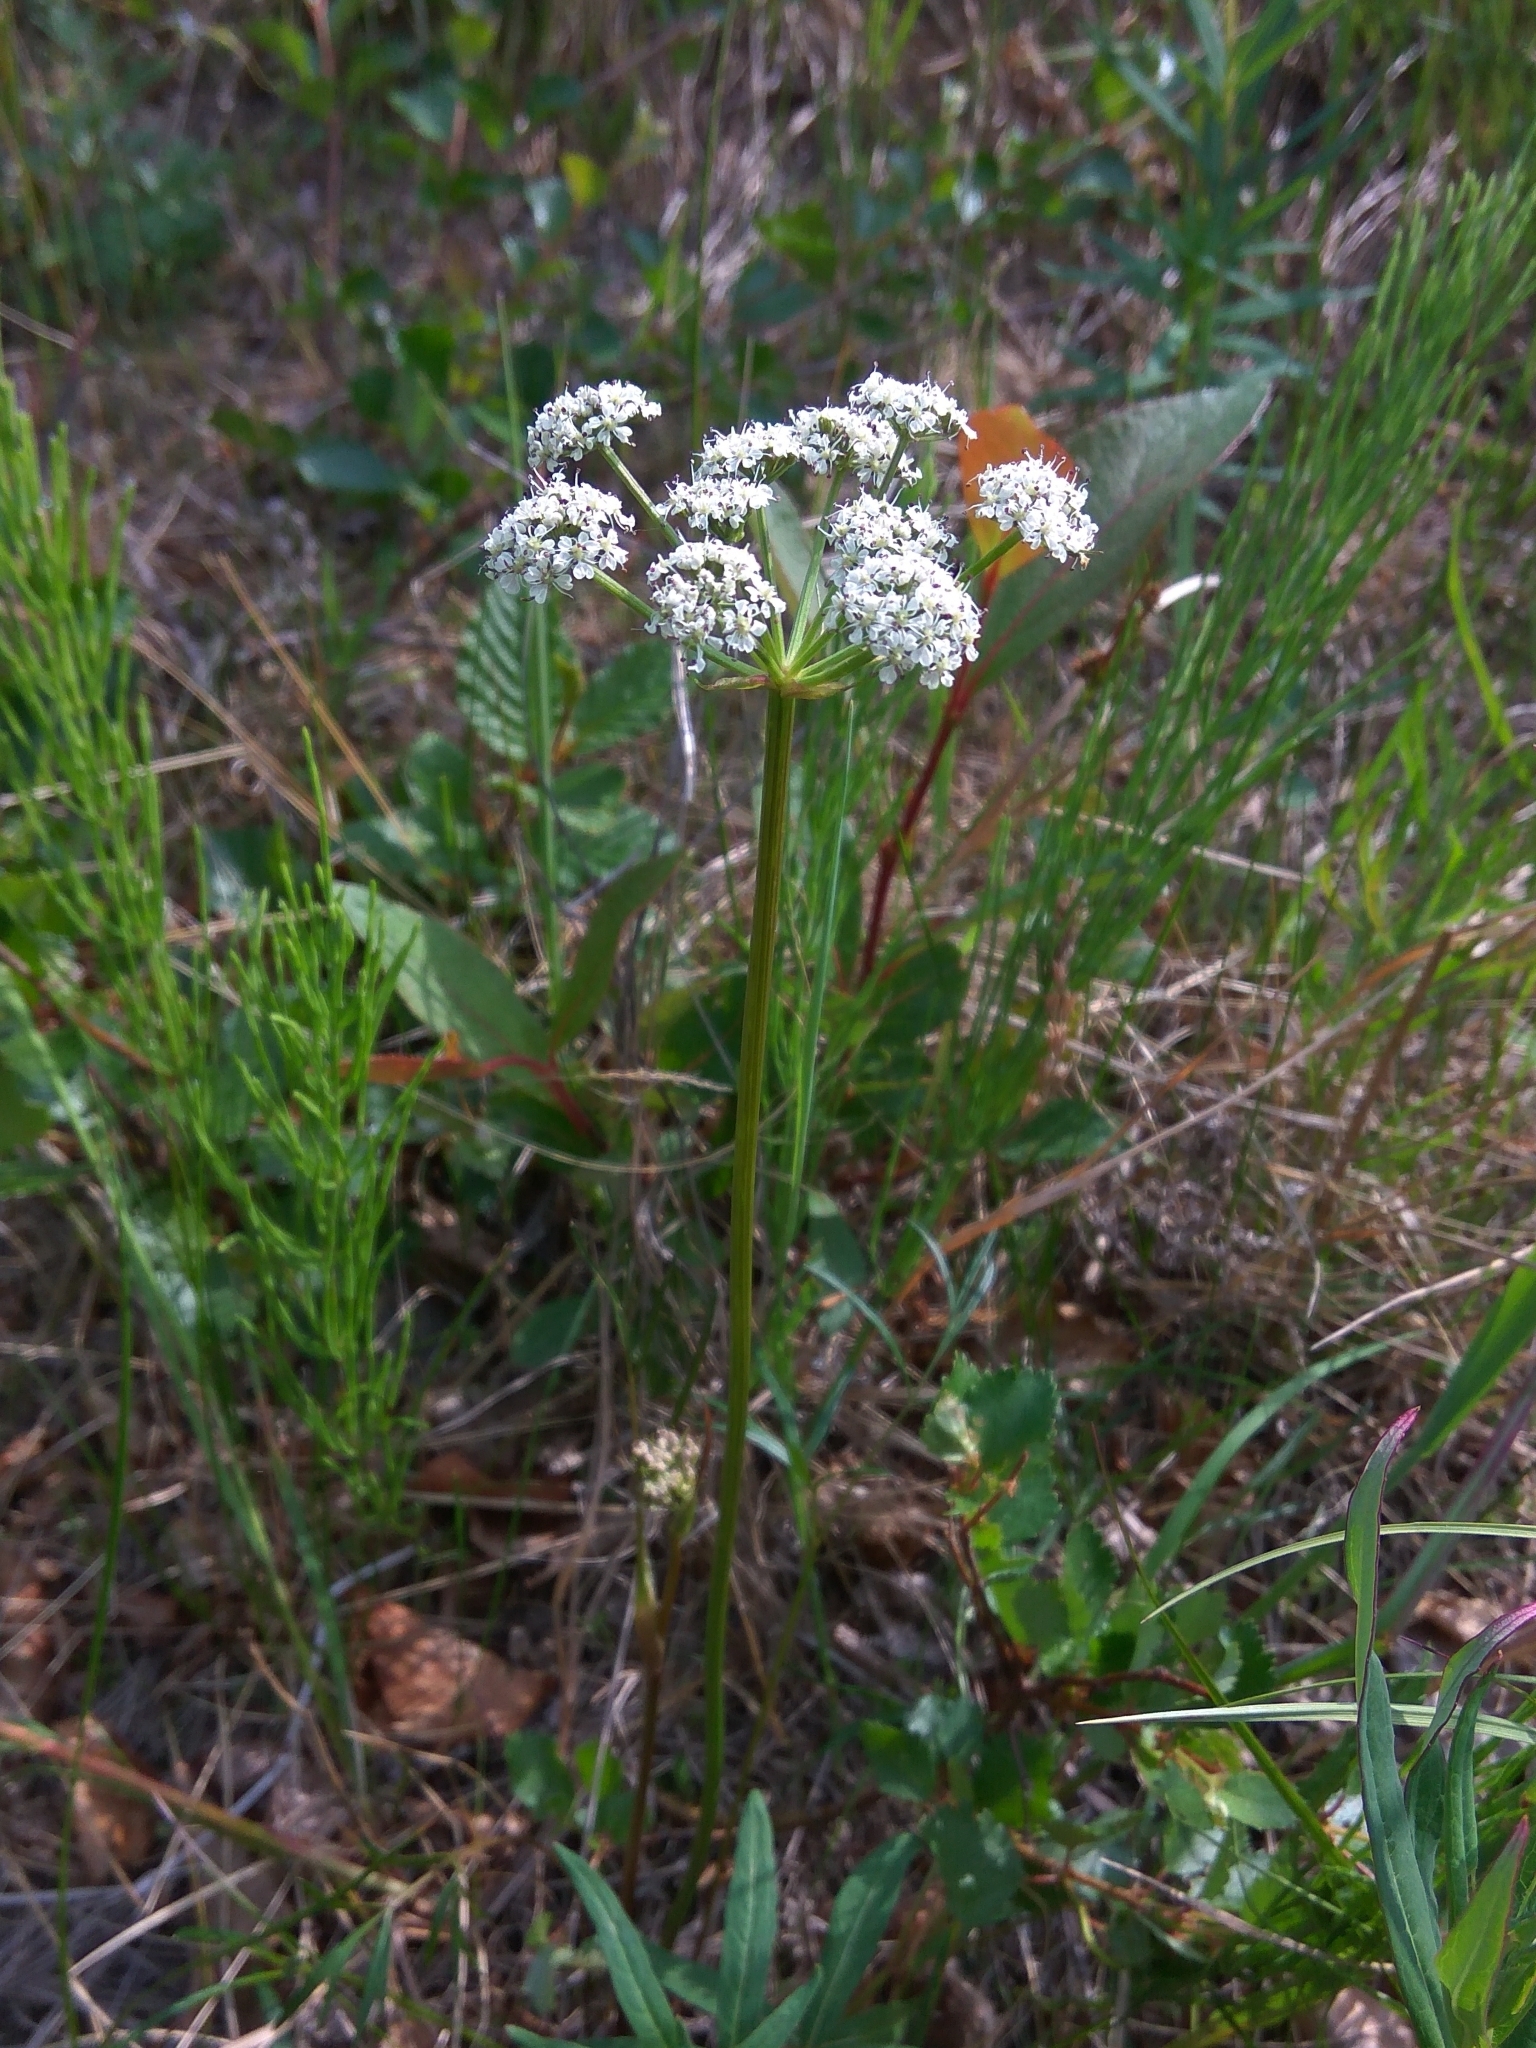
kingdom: Plantae
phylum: Tracheophyta
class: Magnoliopsida
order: Apiales
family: Apiaceae
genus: Tilingia
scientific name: Tilingia ajanensis
